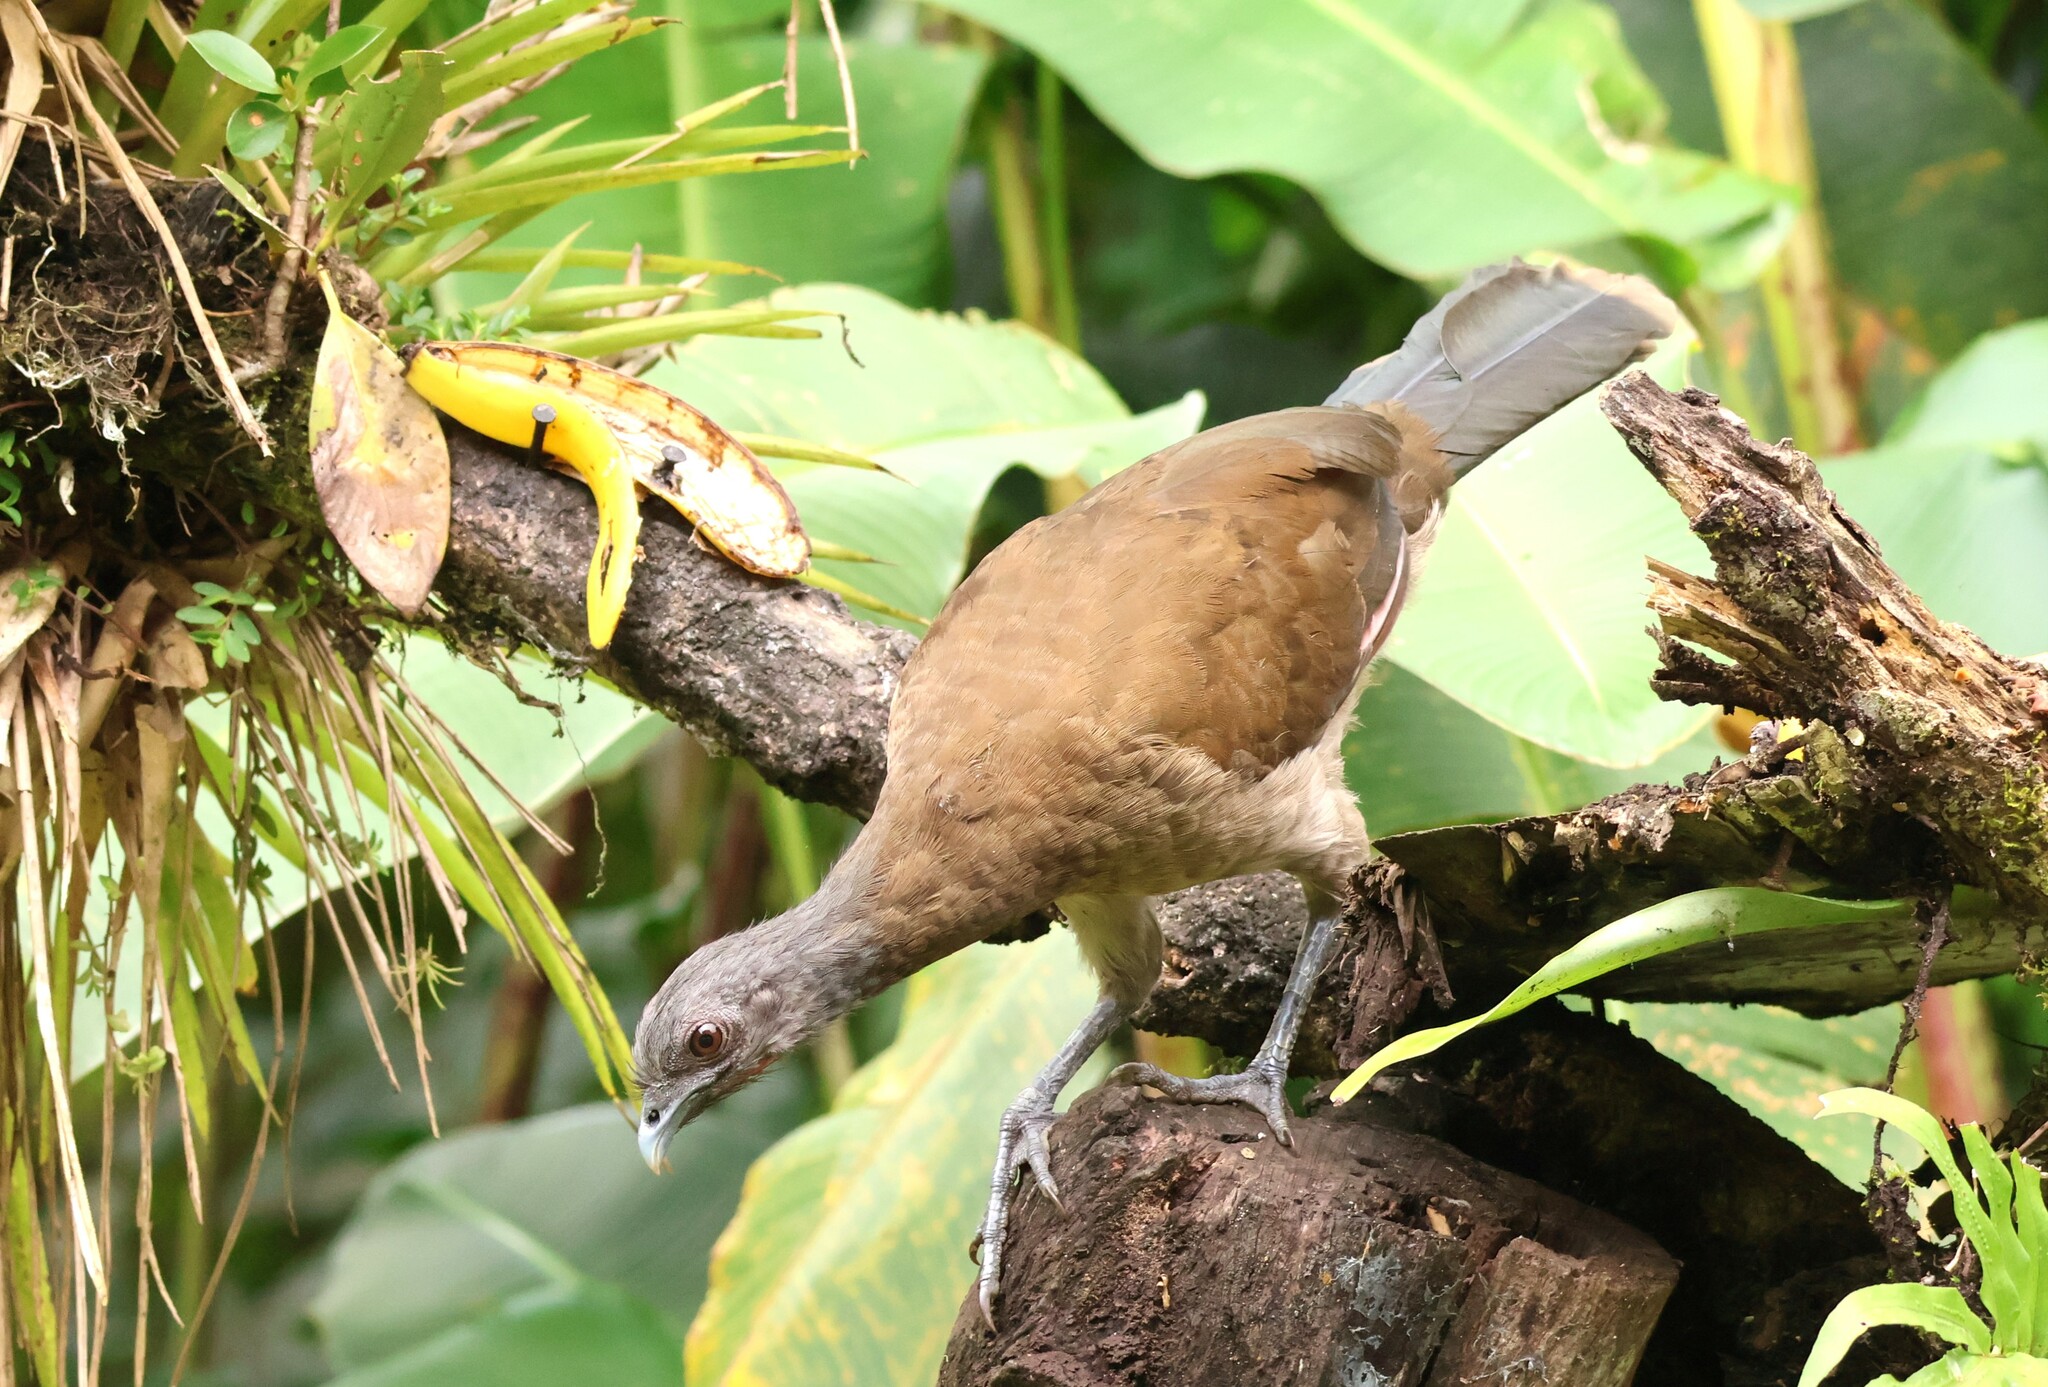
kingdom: Animalia
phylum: Chordata
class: Aves
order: Galliformes
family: Cracidae
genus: Ortalis
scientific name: Ortalis cinereiceps
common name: Grey-headed chachalaca
